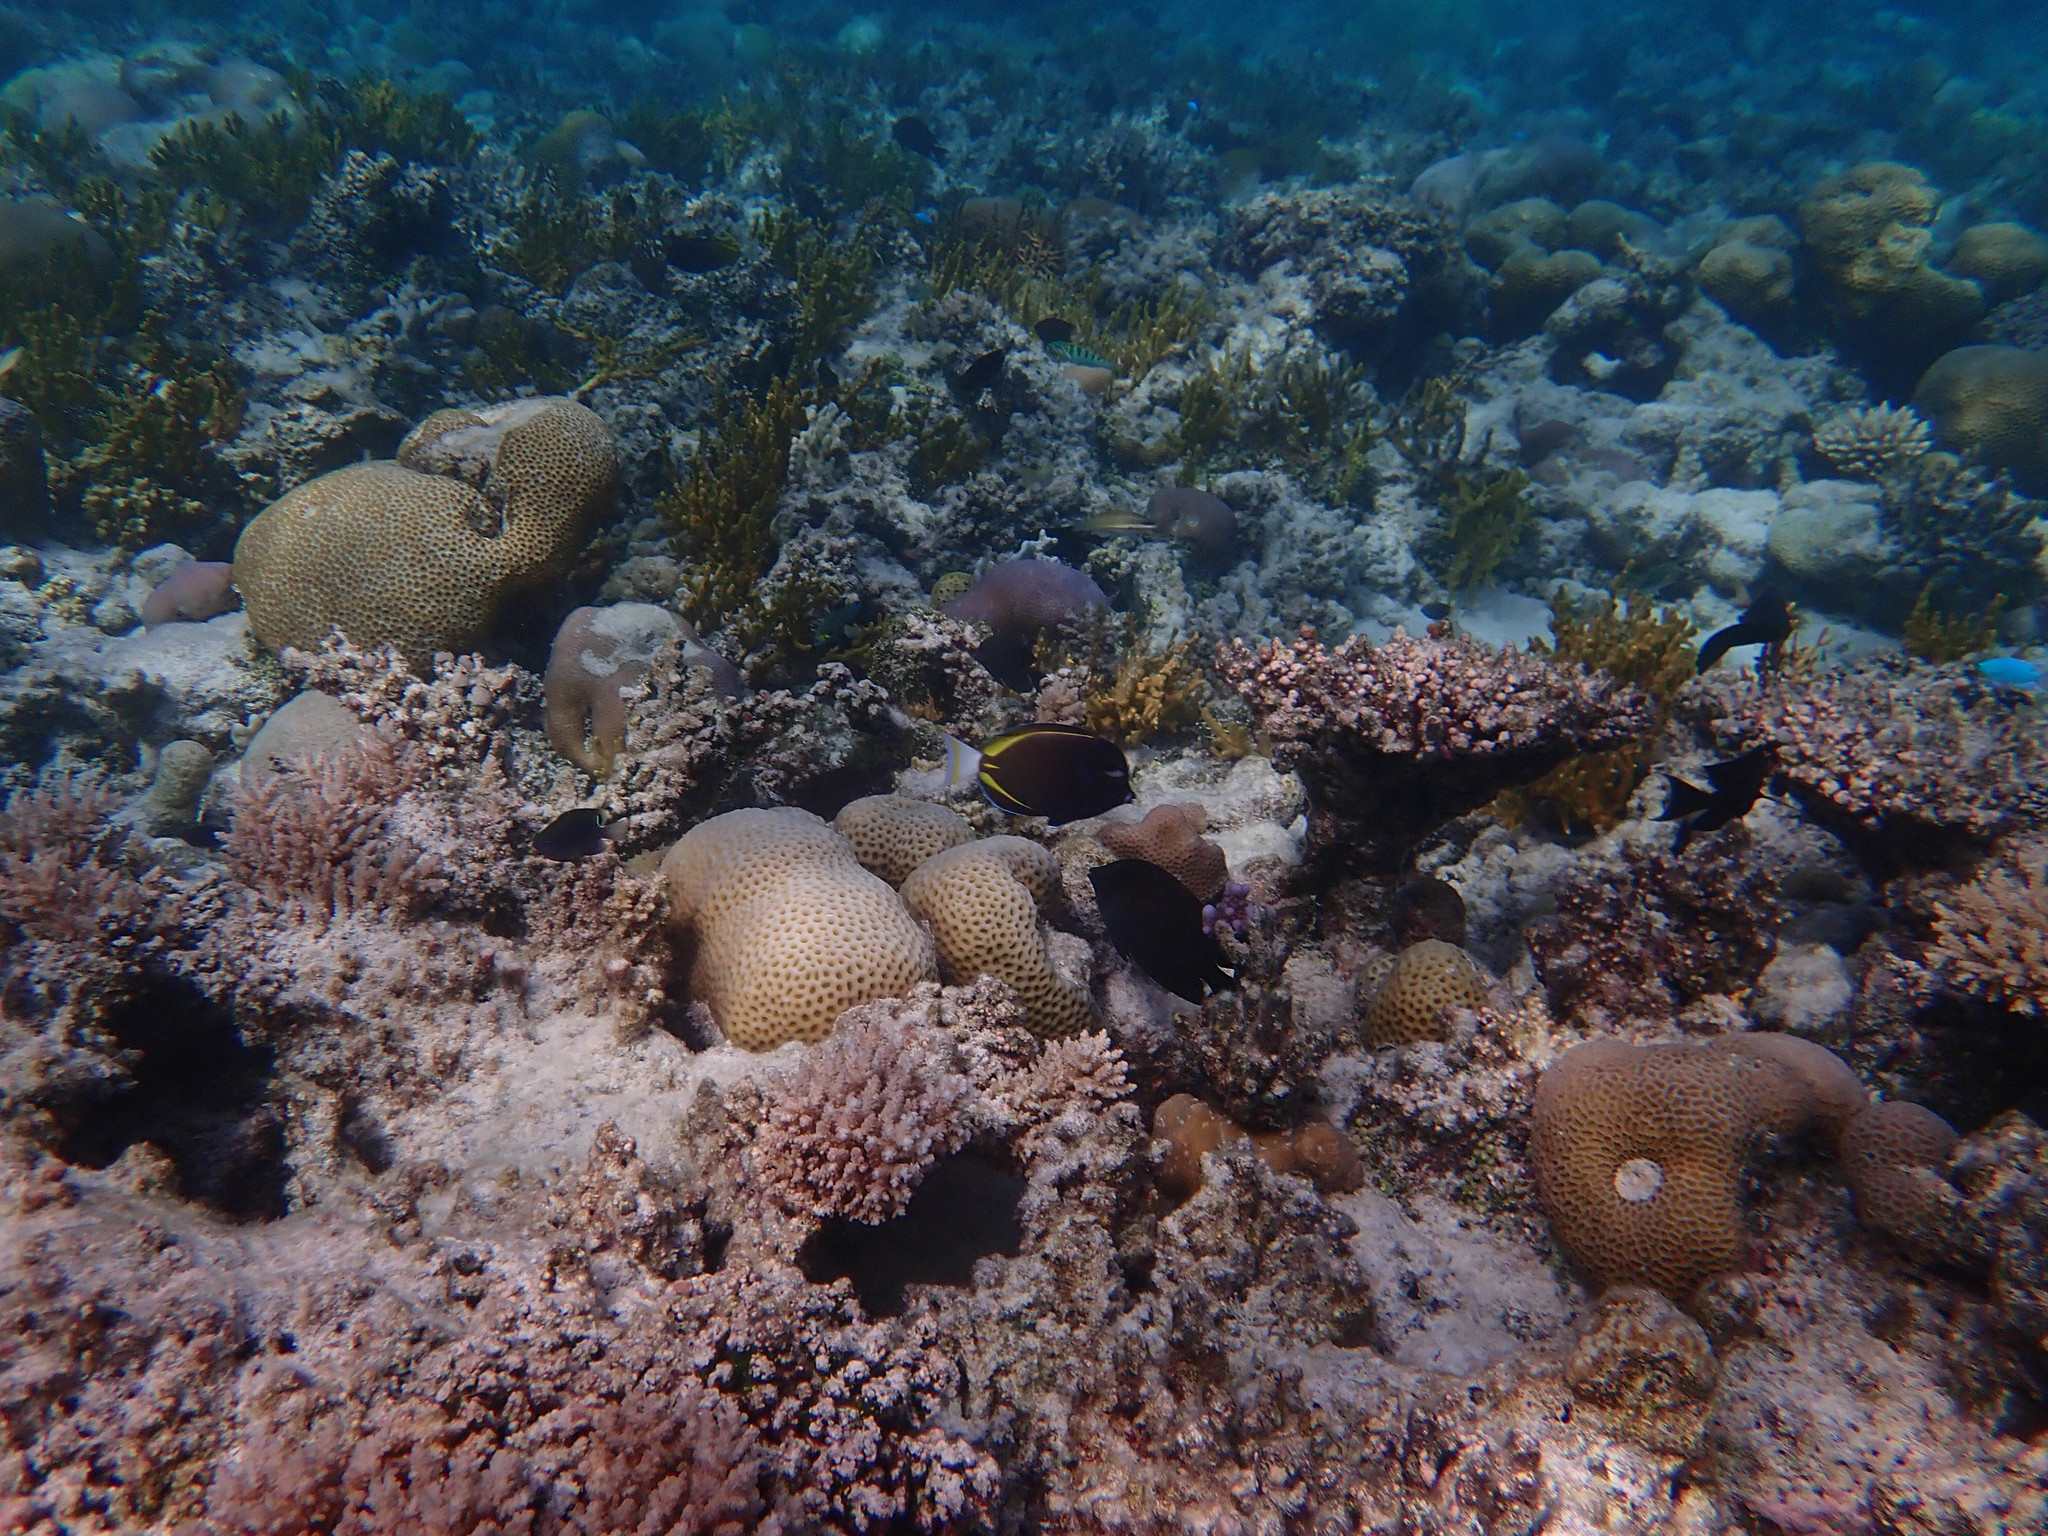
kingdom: Animalia
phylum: Chordata
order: Perciformes
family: Acanthuridae
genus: Acanthurus
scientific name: Acanthurus nigricans
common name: Whitecheek surgeonfish
